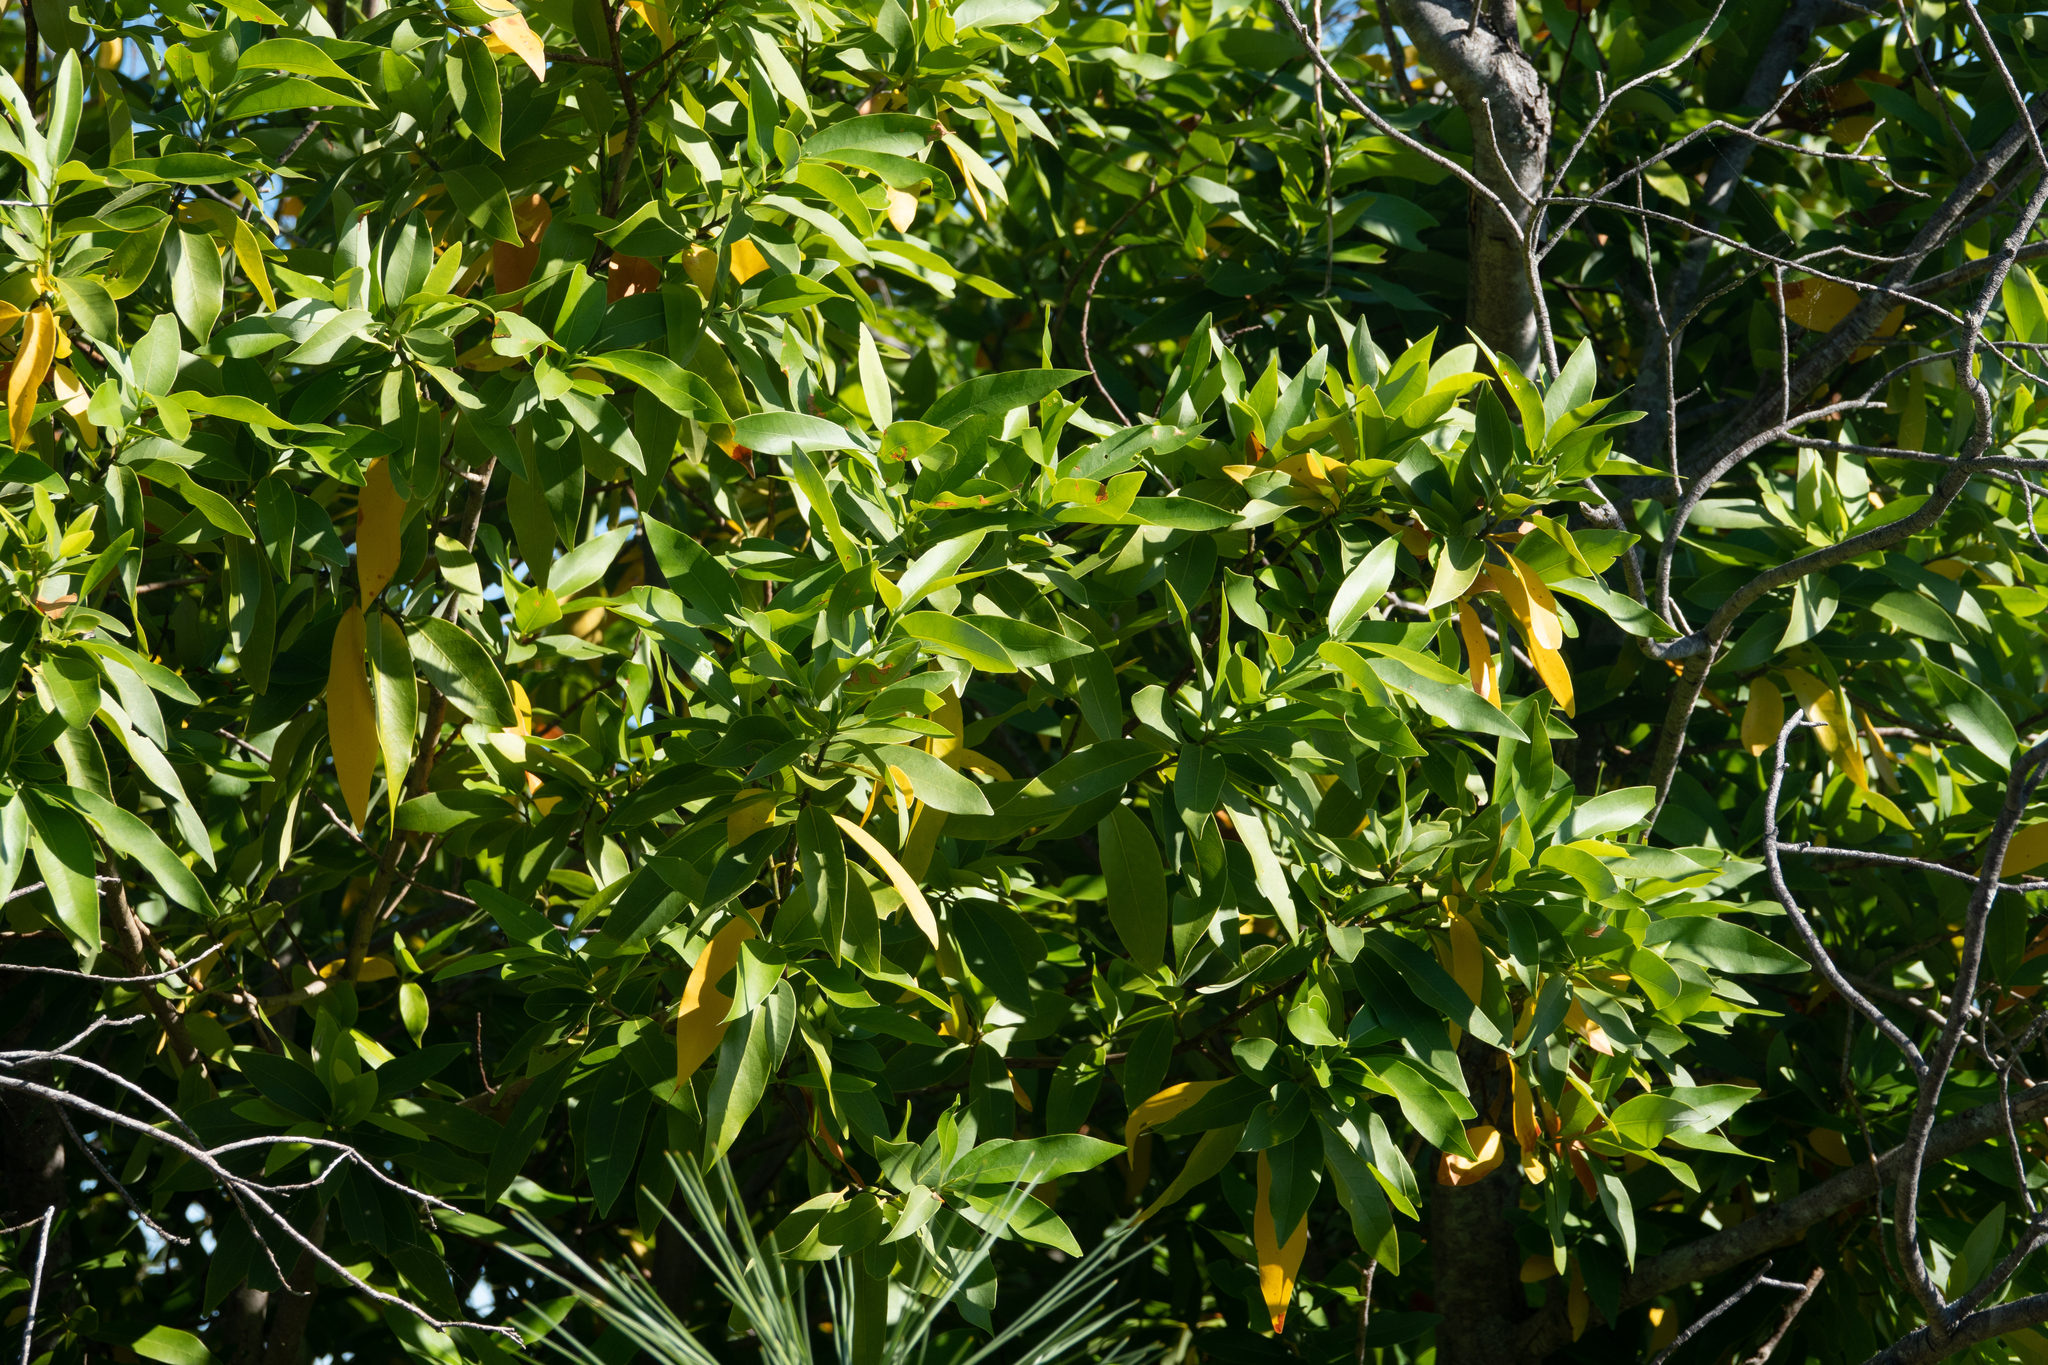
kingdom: Plantae
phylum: Tracheophyta
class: Magnoliopsida
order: Laurales
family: Lauraceae
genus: Umbellularia
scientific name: Umbellularia californica
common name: California bay
